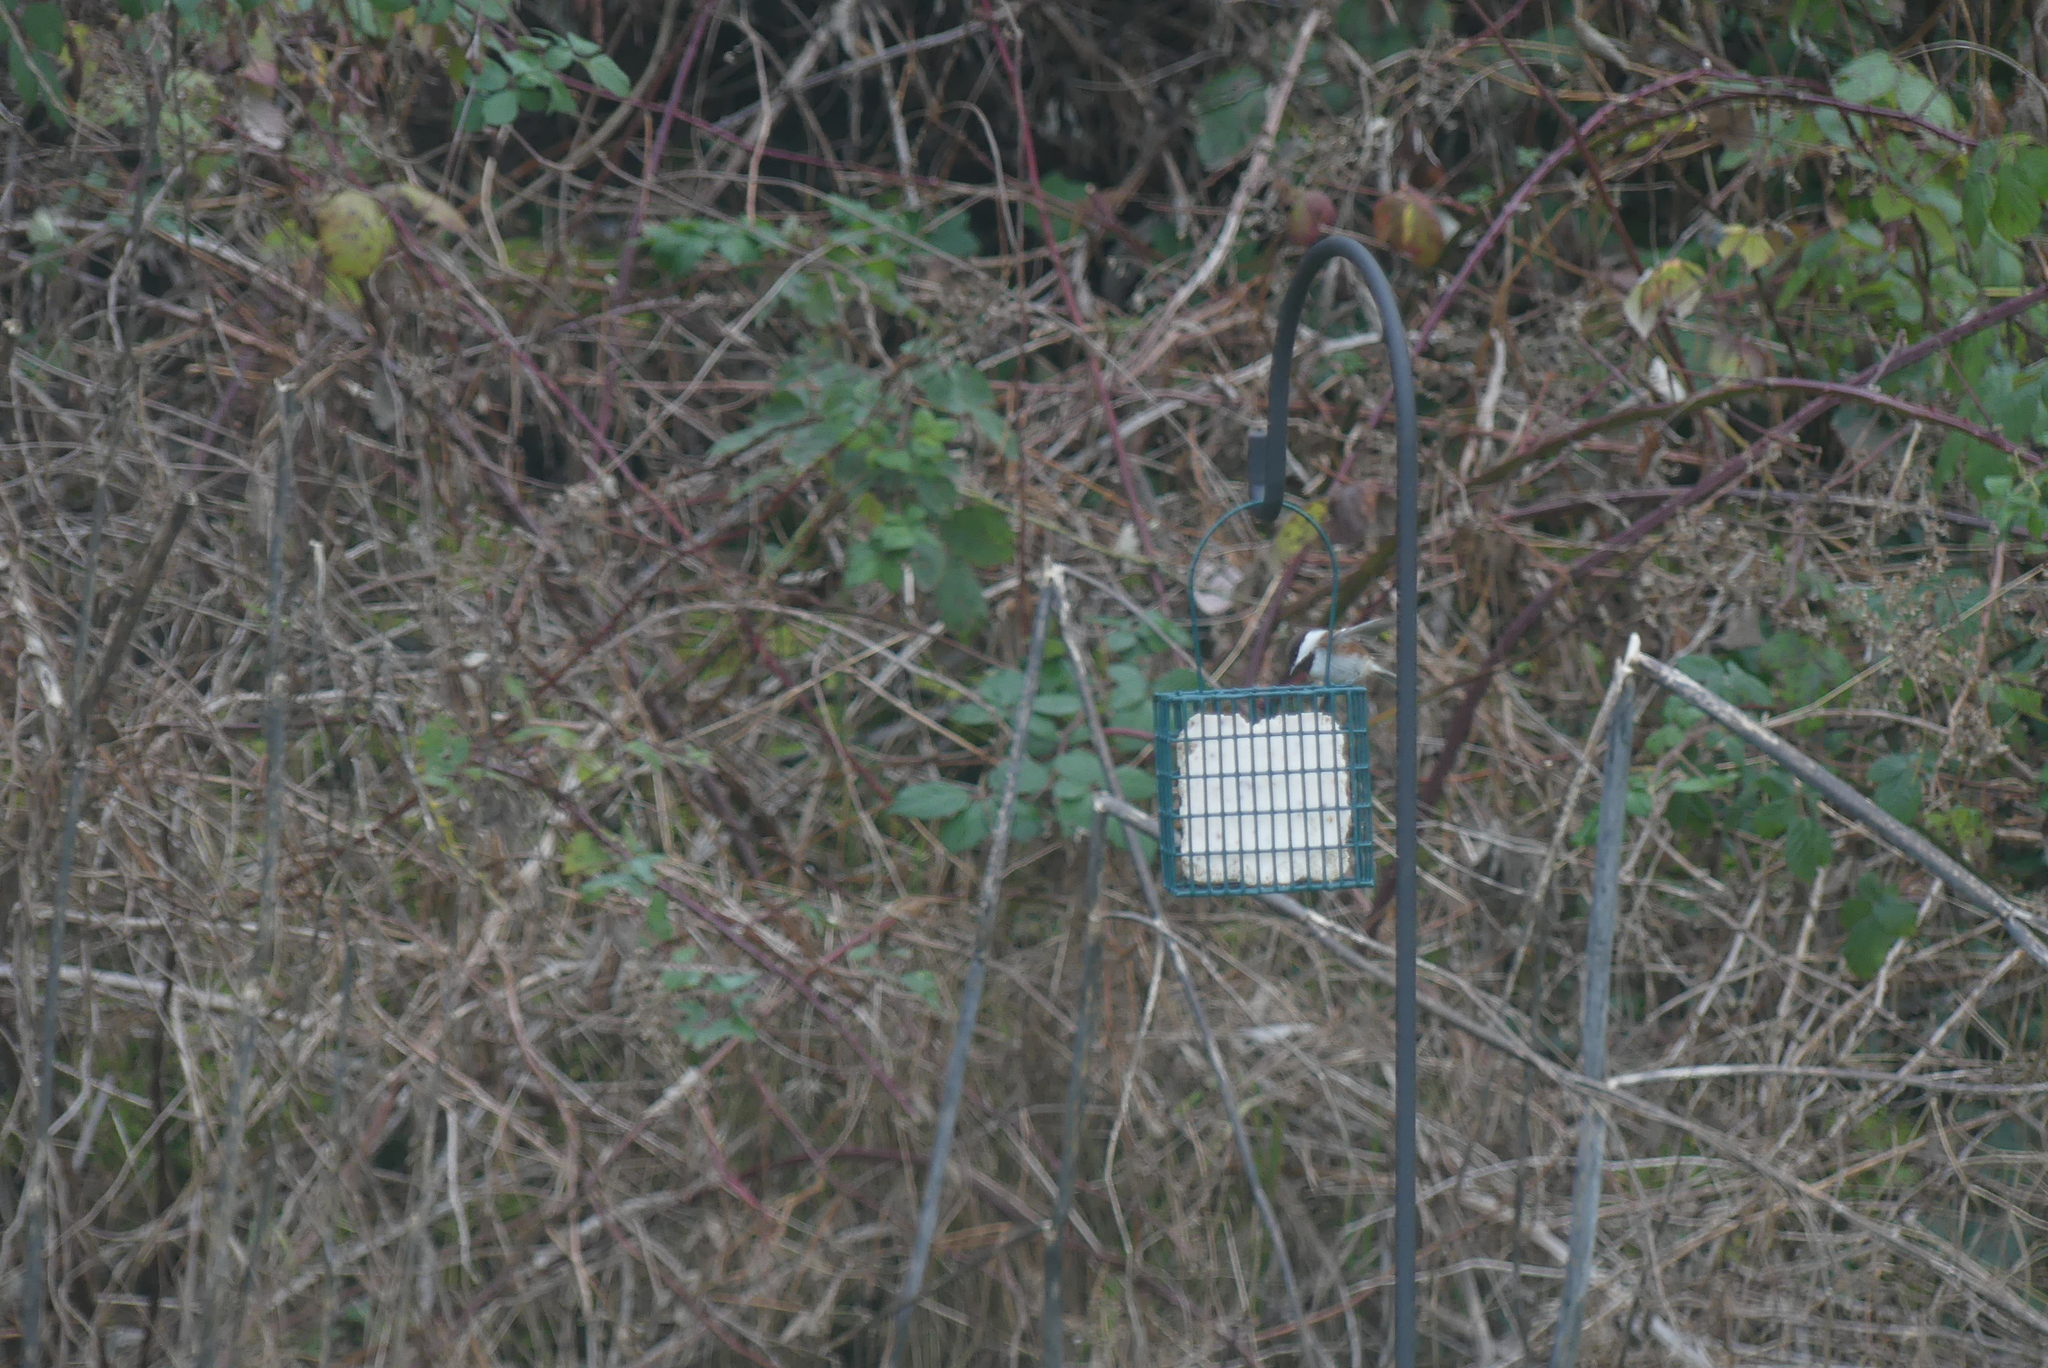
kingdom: Animalia
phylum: Chordata
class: Aves
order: Passeriformes
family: Paridae
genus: Poecile
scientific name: Poecile rufescens
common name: Chestnut-backed chickadee
